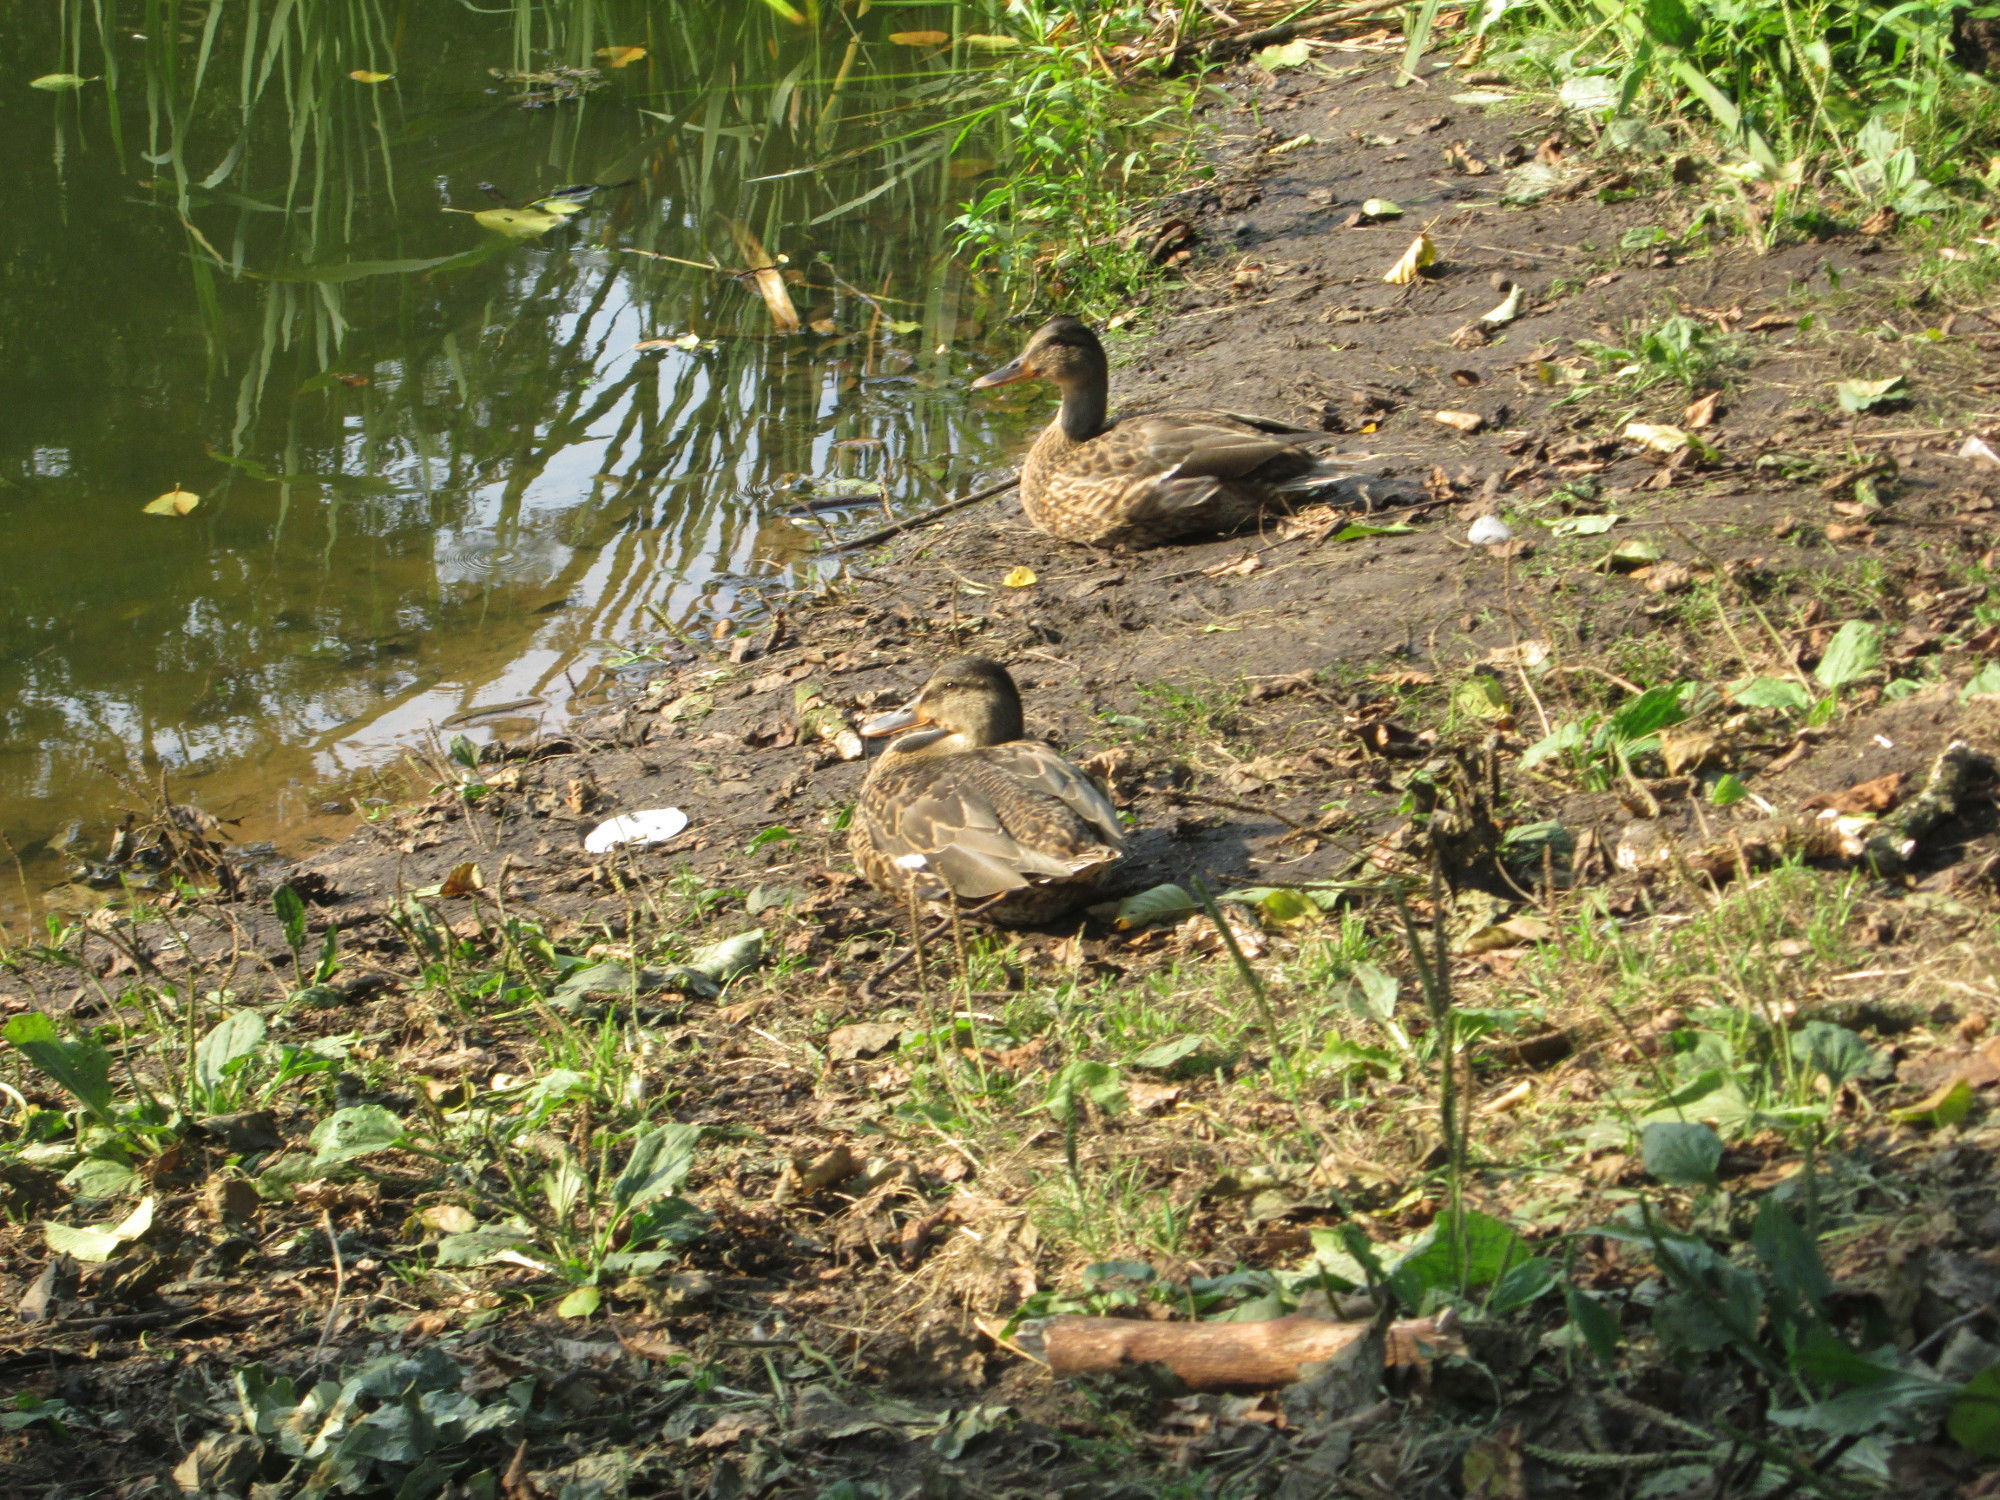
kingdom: Animalia
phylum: Chordata
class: Aves
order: Anseriformes
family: Anatidae
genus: Anas
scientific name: Anas platyrhynchos
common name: Mallard
